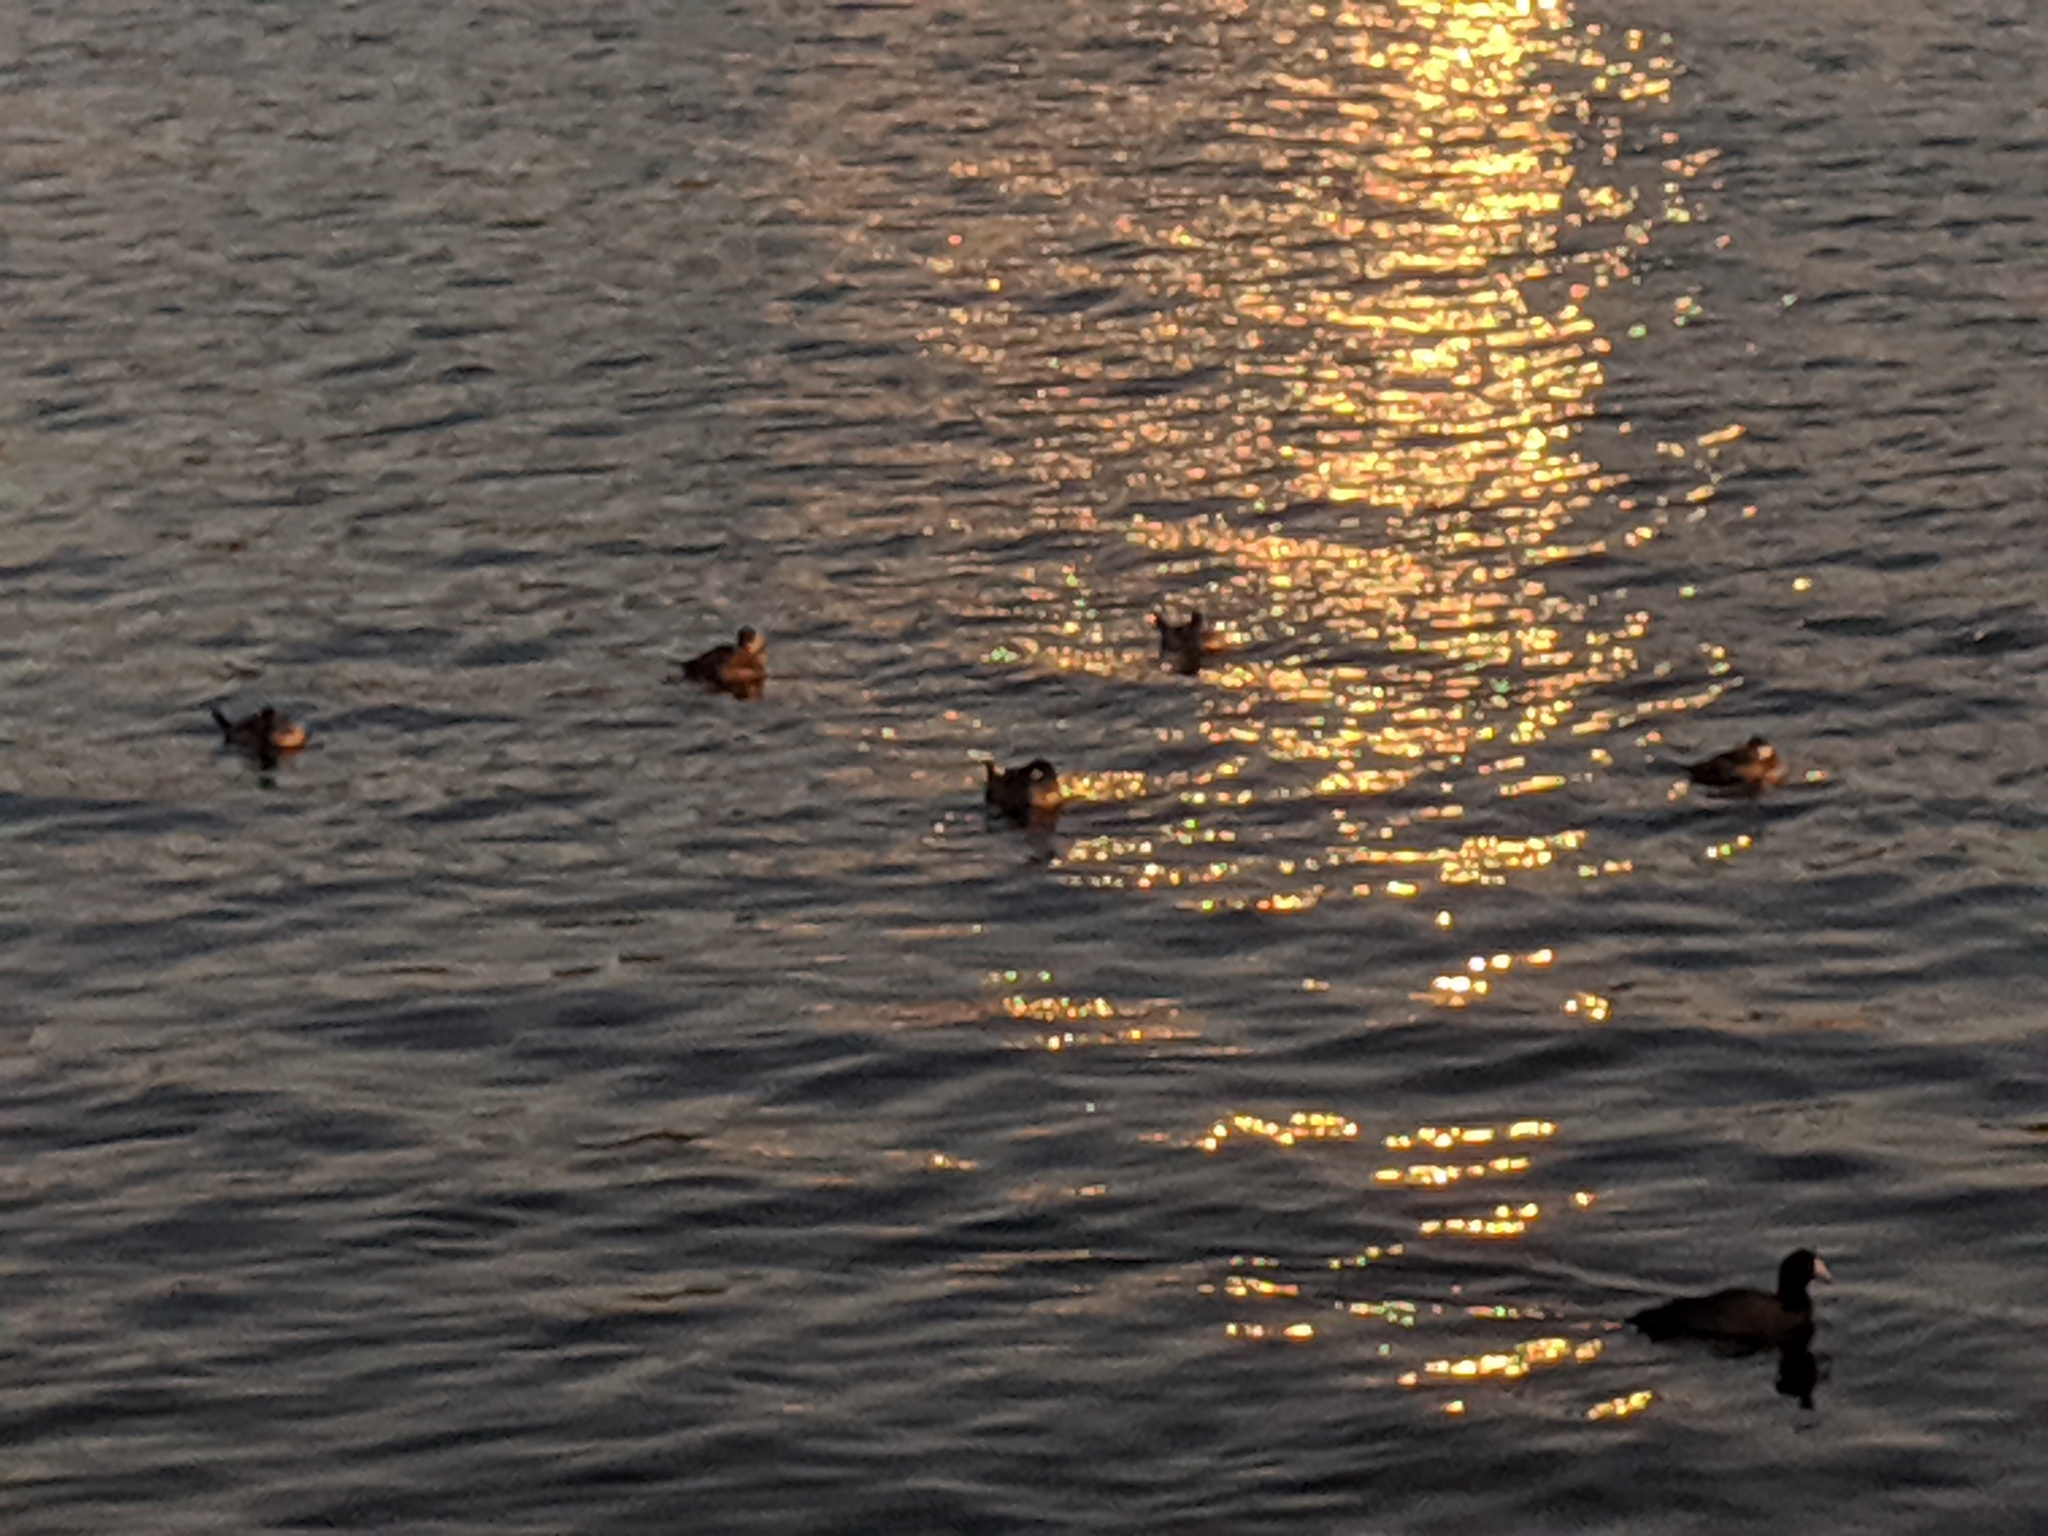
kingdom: Animalia
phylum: Chordata
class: Aves
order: Anseriformes
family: Anatidae
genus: Oxyura
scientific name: Oxyura jamaicensis
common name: Ruddy duck
